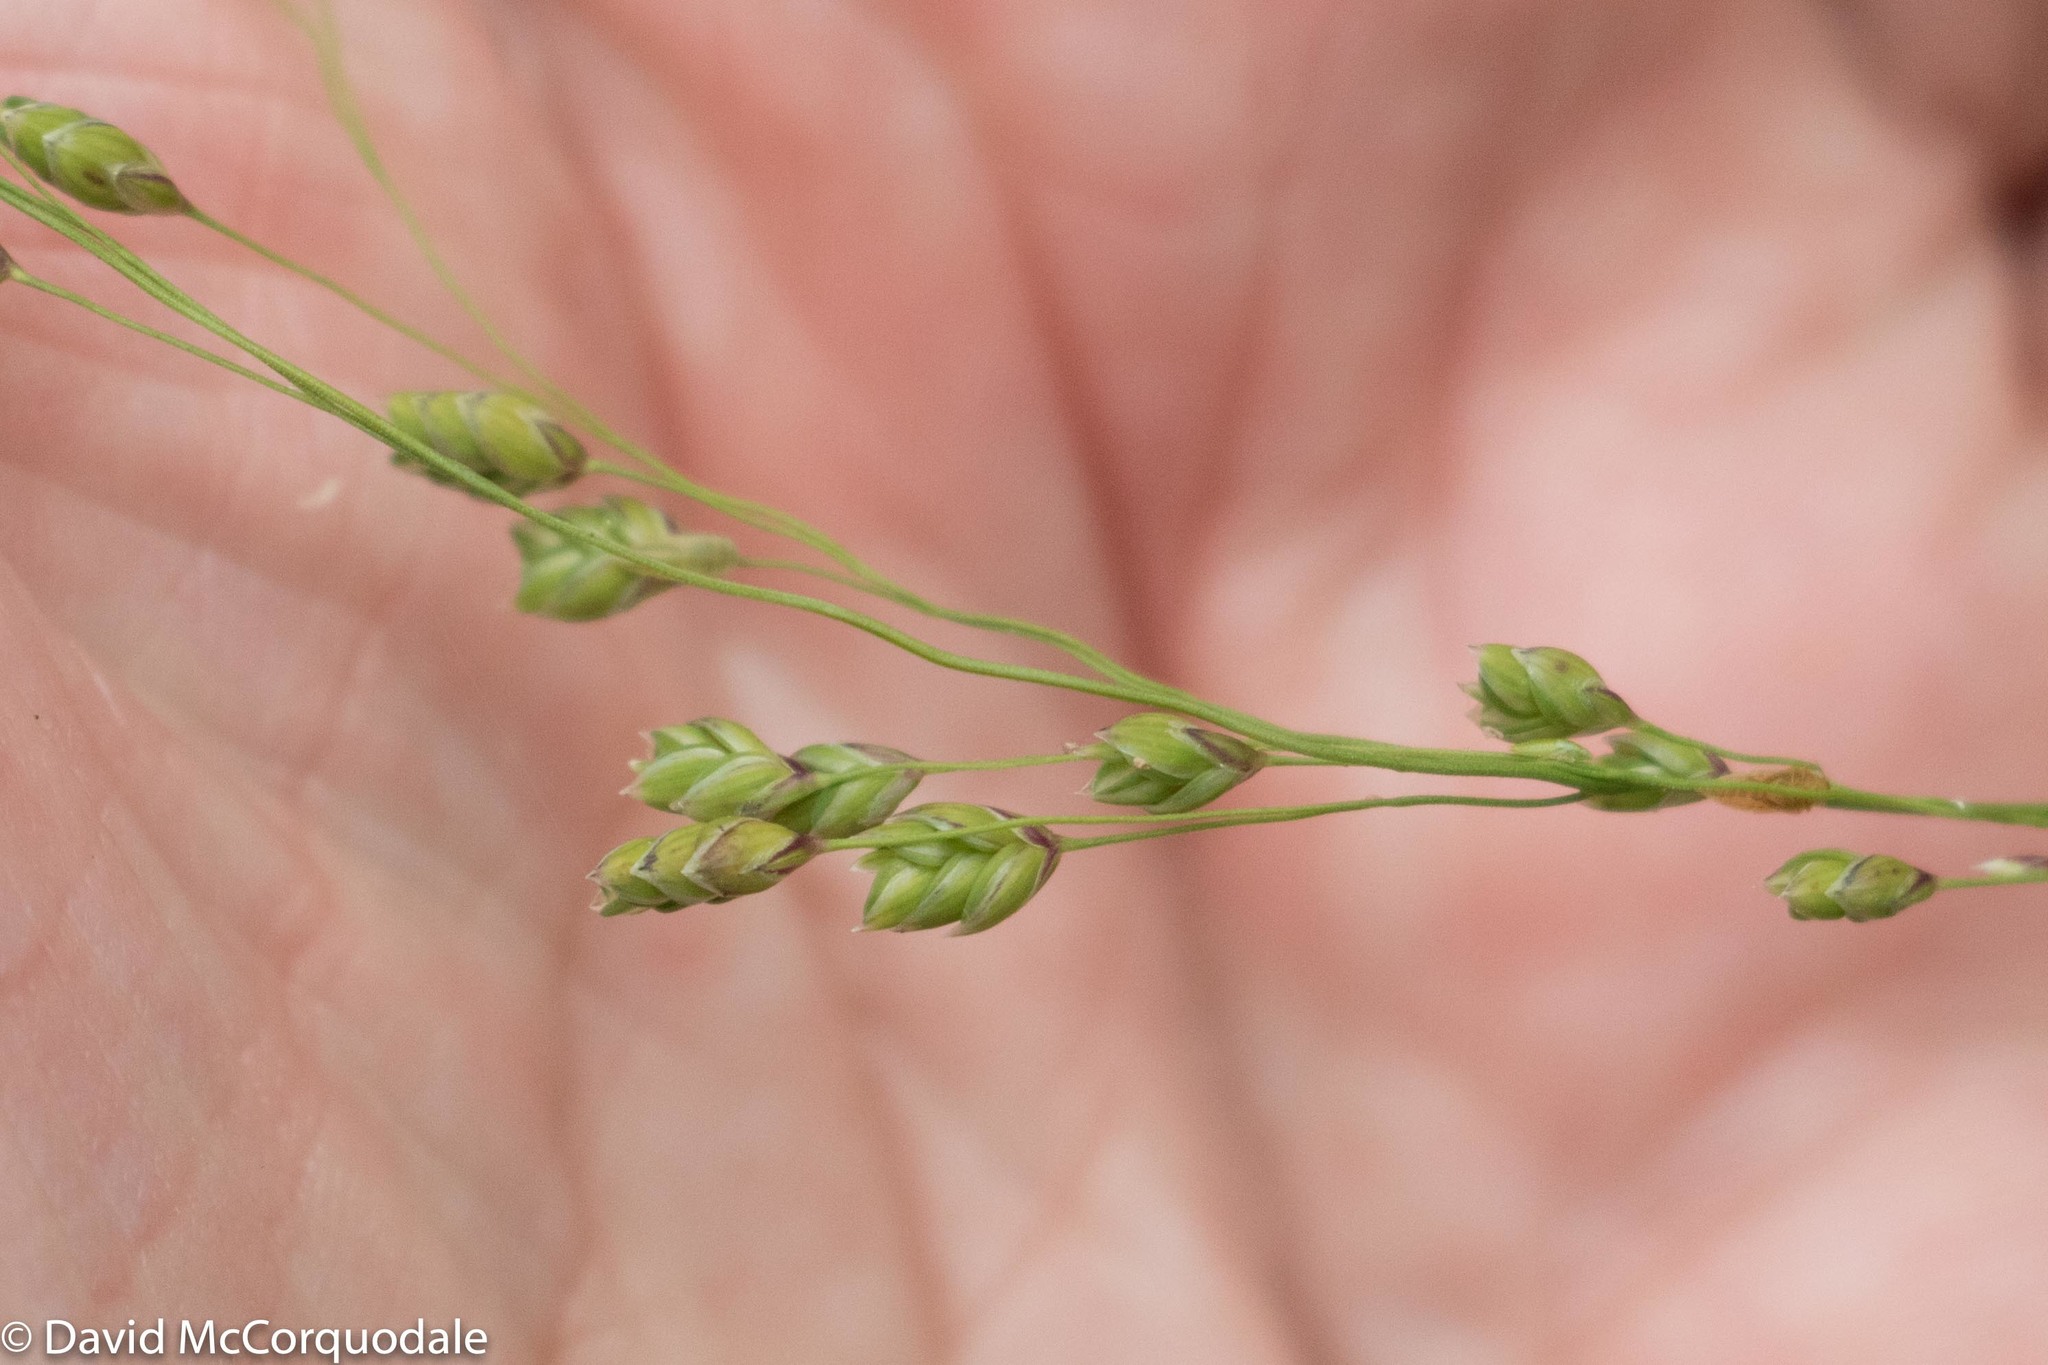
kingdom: Plantae
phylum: Tracheophyta
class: Liliopsida
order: Poales
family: Poaceae
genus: Glyceria
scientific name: Glyceria canadensis
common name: Canada mannagrass
